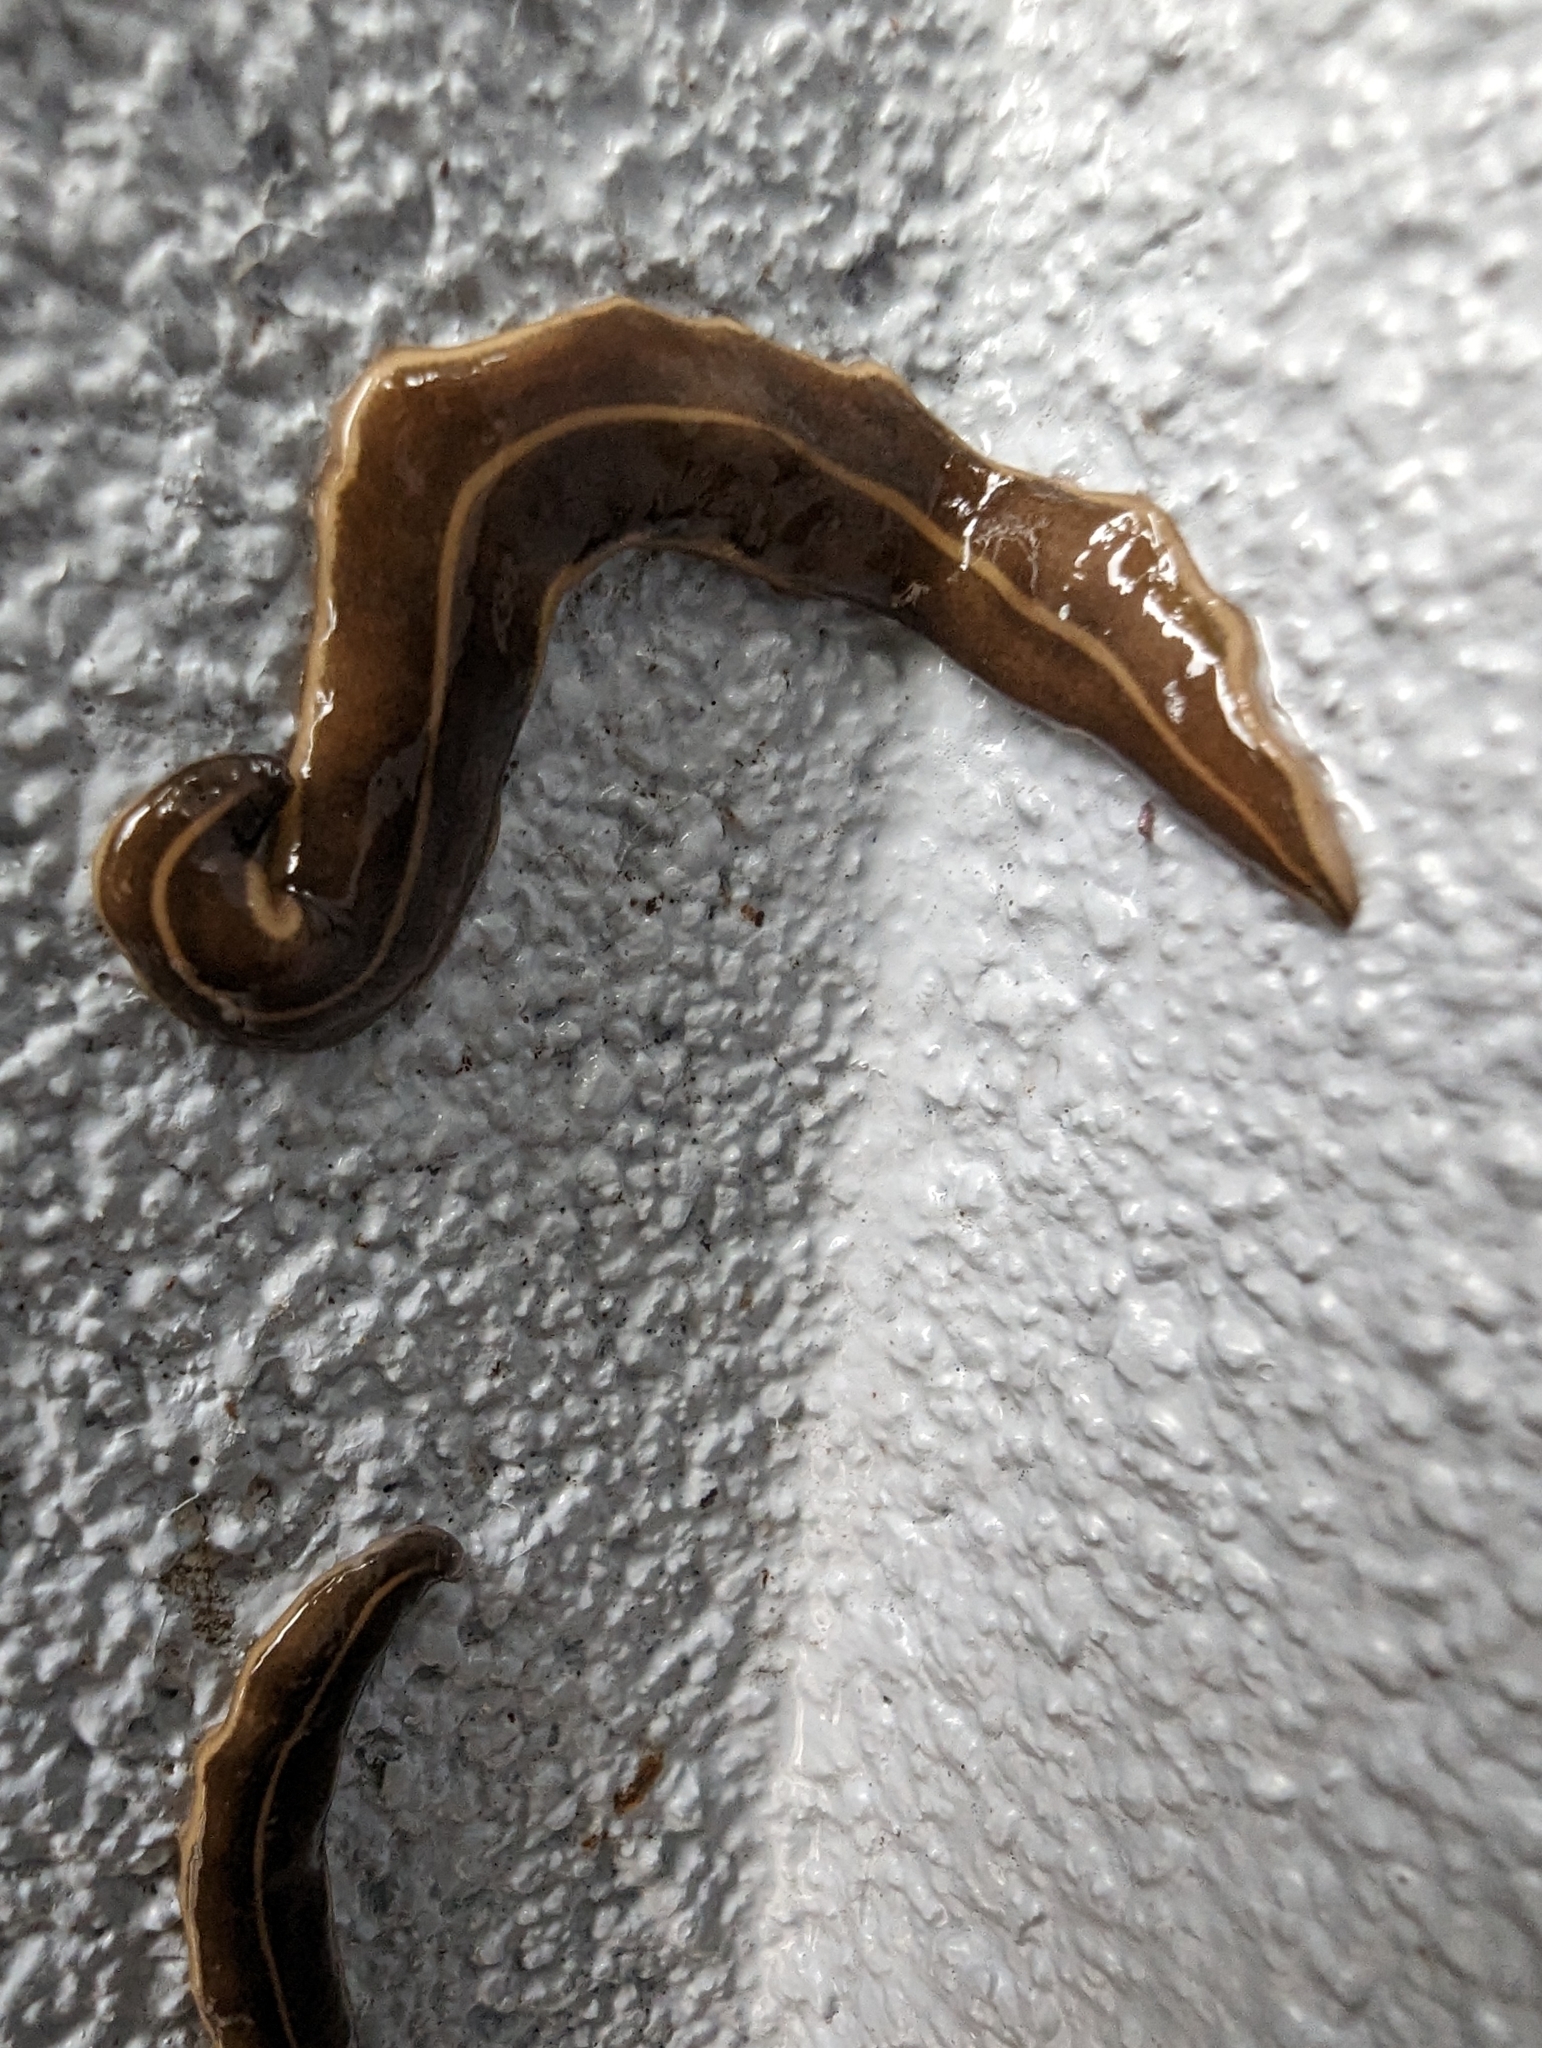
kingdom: Animalia
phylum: Platyhelminthes
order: Tricladida
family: Geoplanidae
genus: Platydemus
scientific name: Platydemus manokwari
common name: New guinea flatworm
